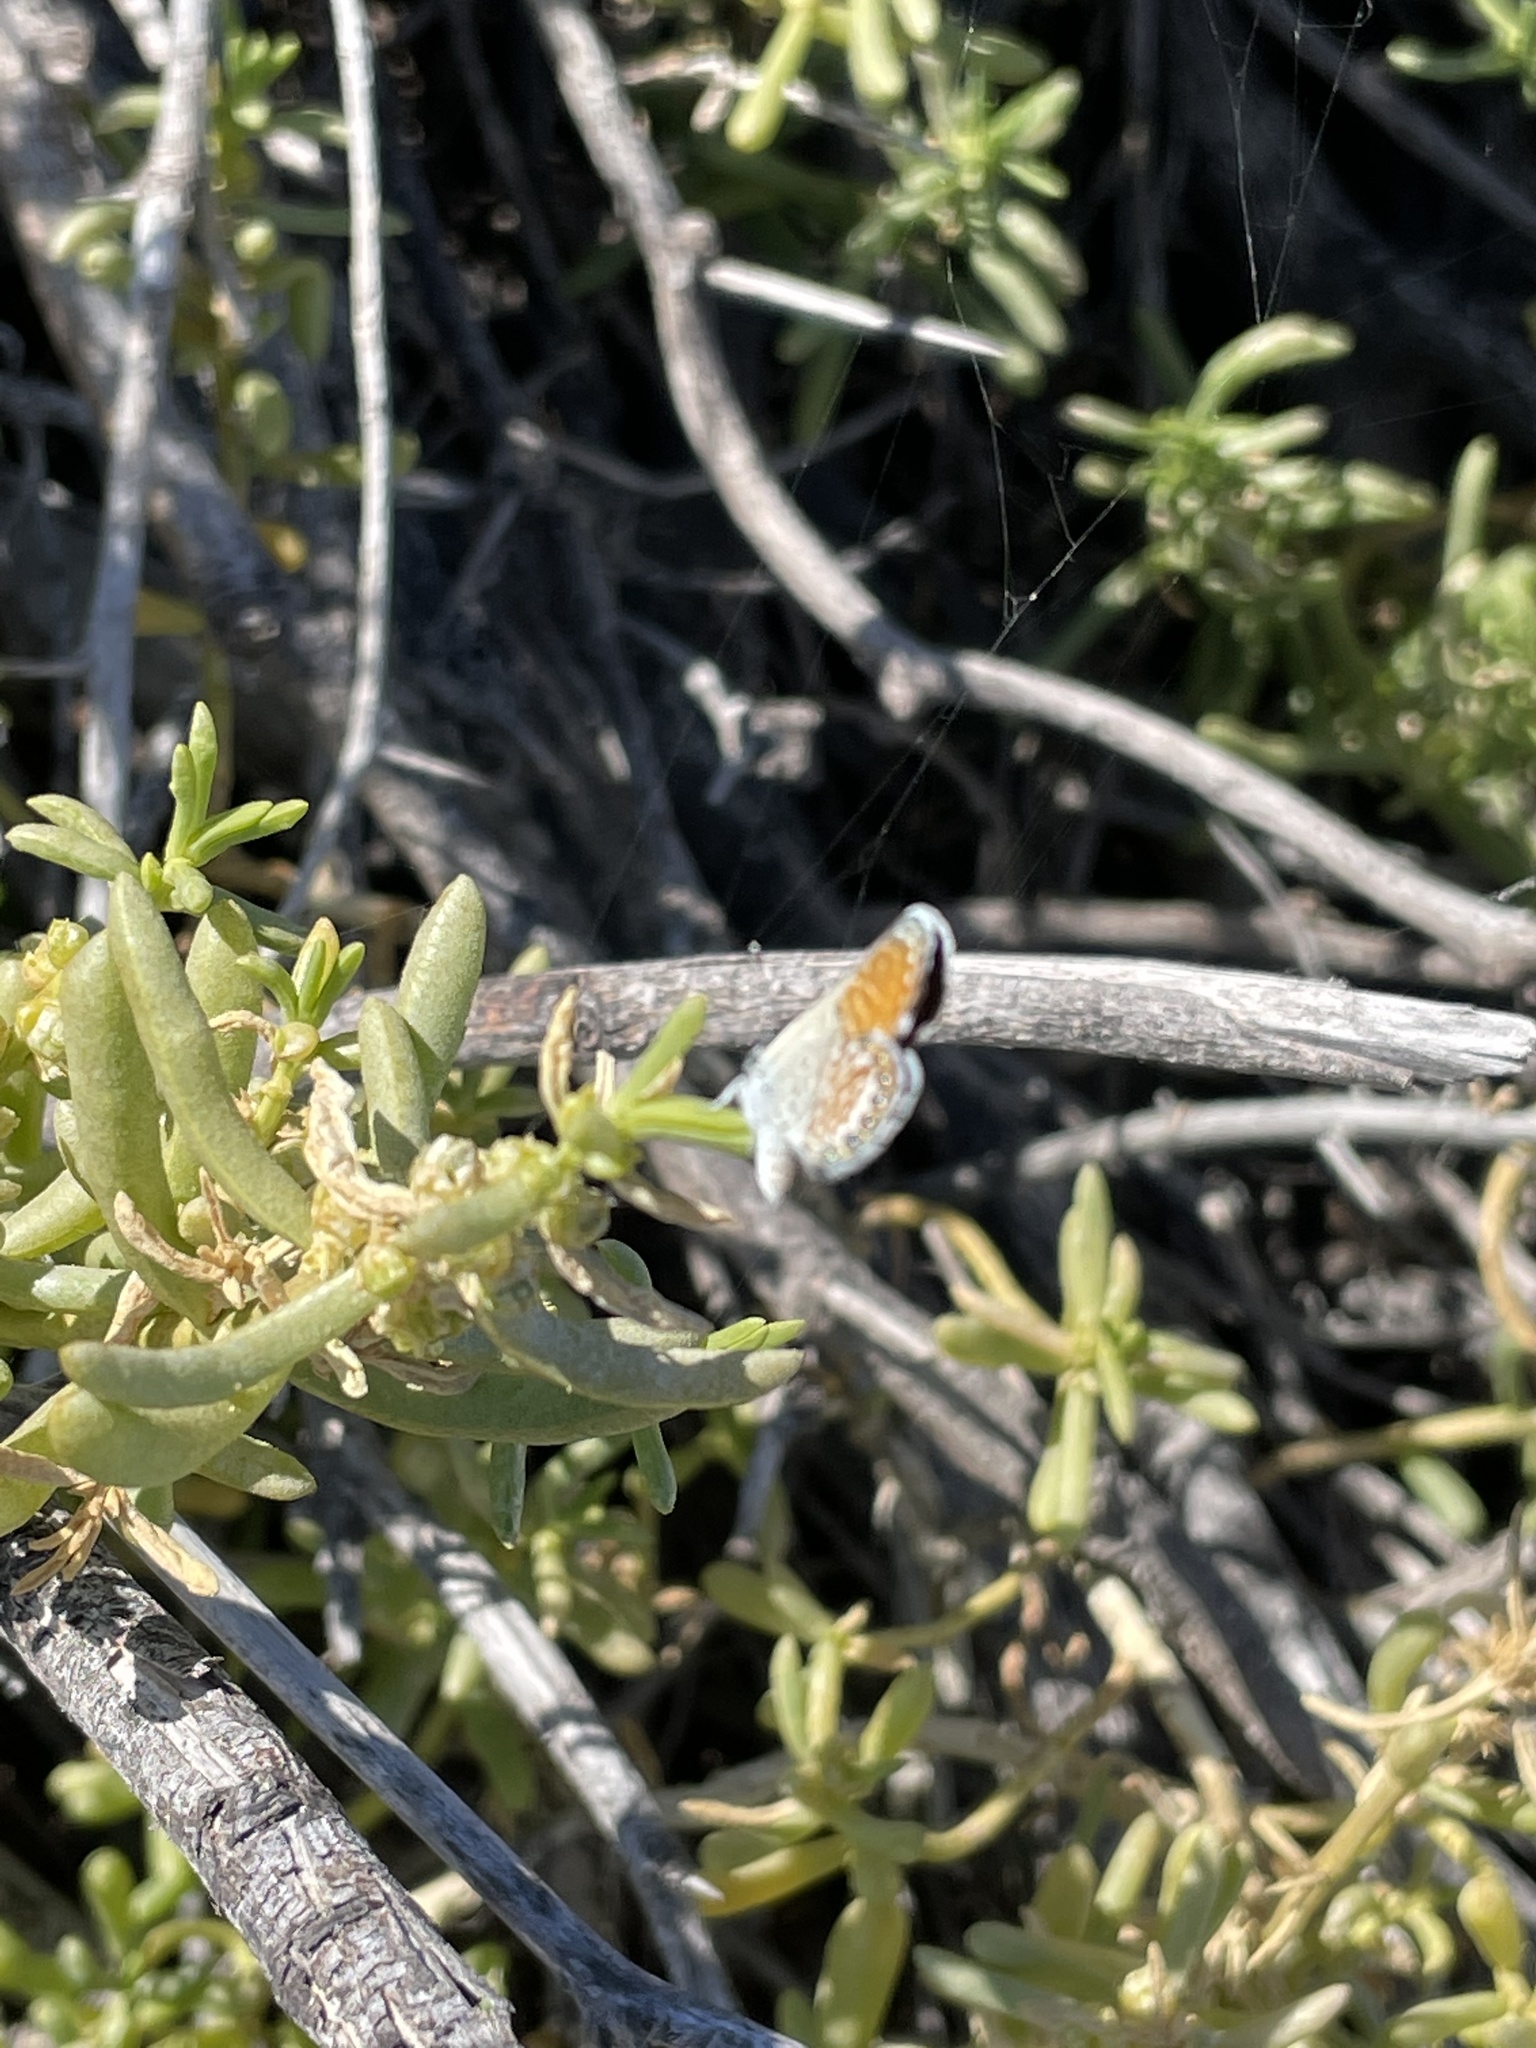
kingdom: Animalia
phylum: Arthropoda
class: Insecta
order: Lepidoptera
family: Lycaenidae
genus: Brephidium
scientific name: Brephidium exilis
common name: Pygmy blue
